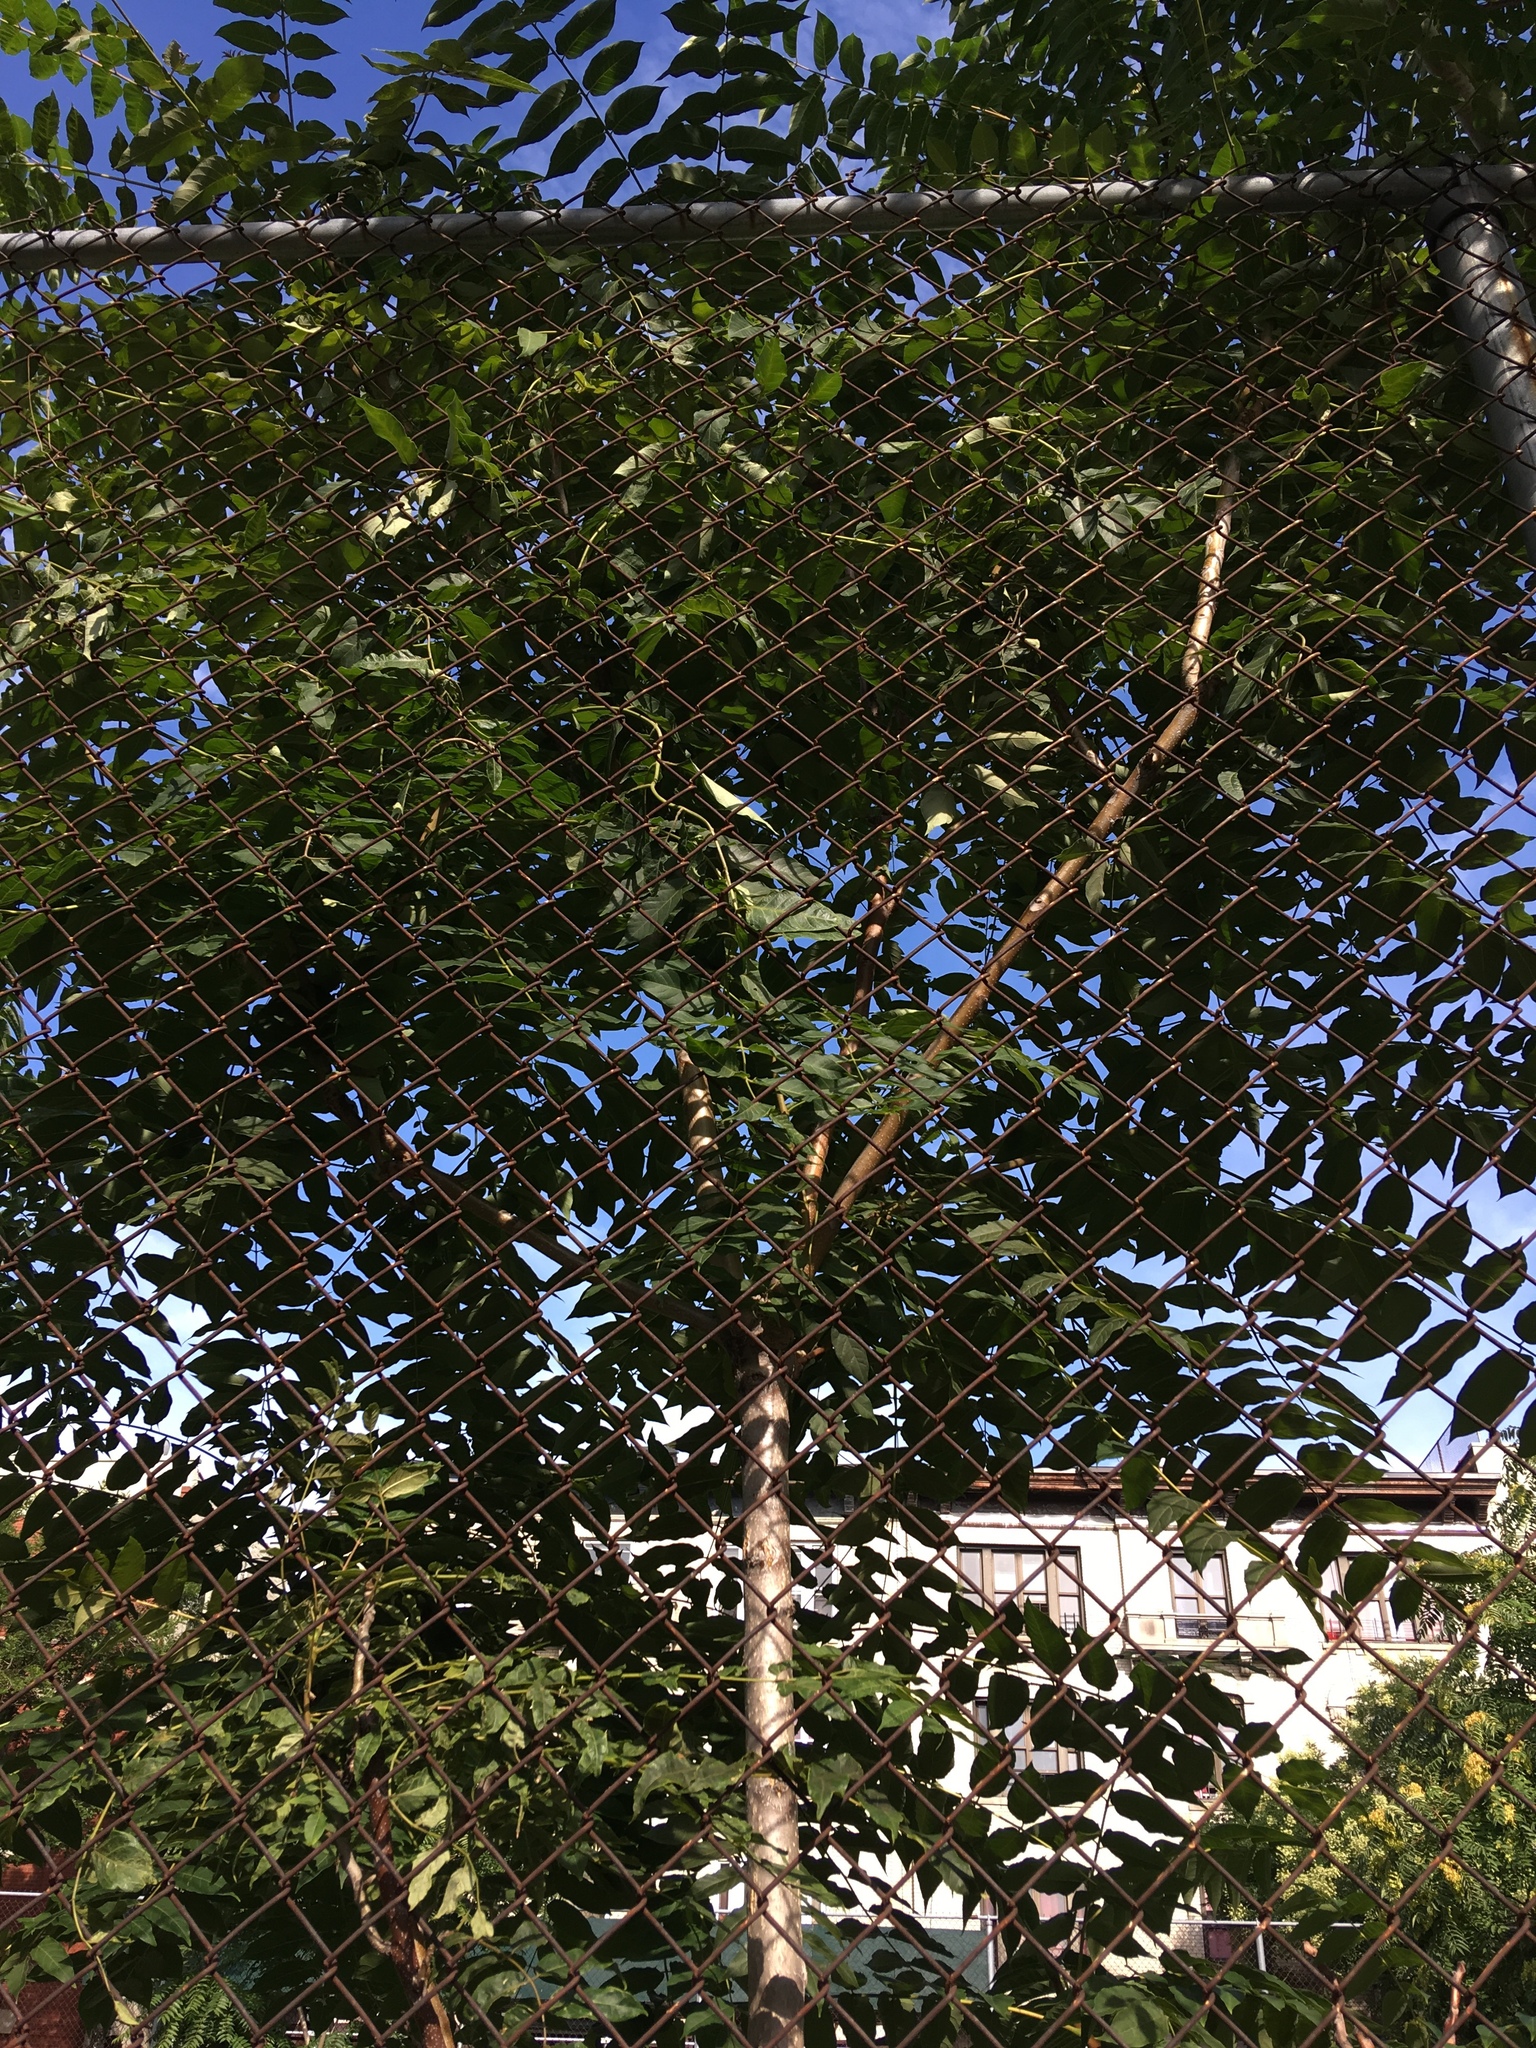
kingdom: Plantae
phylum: Tracheophyta
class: Magnoliopsida
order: Sapindales
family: Simaroubaceae
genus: Ailanthus
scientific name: Ailanthus altissima
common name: Tree-of-heaven
